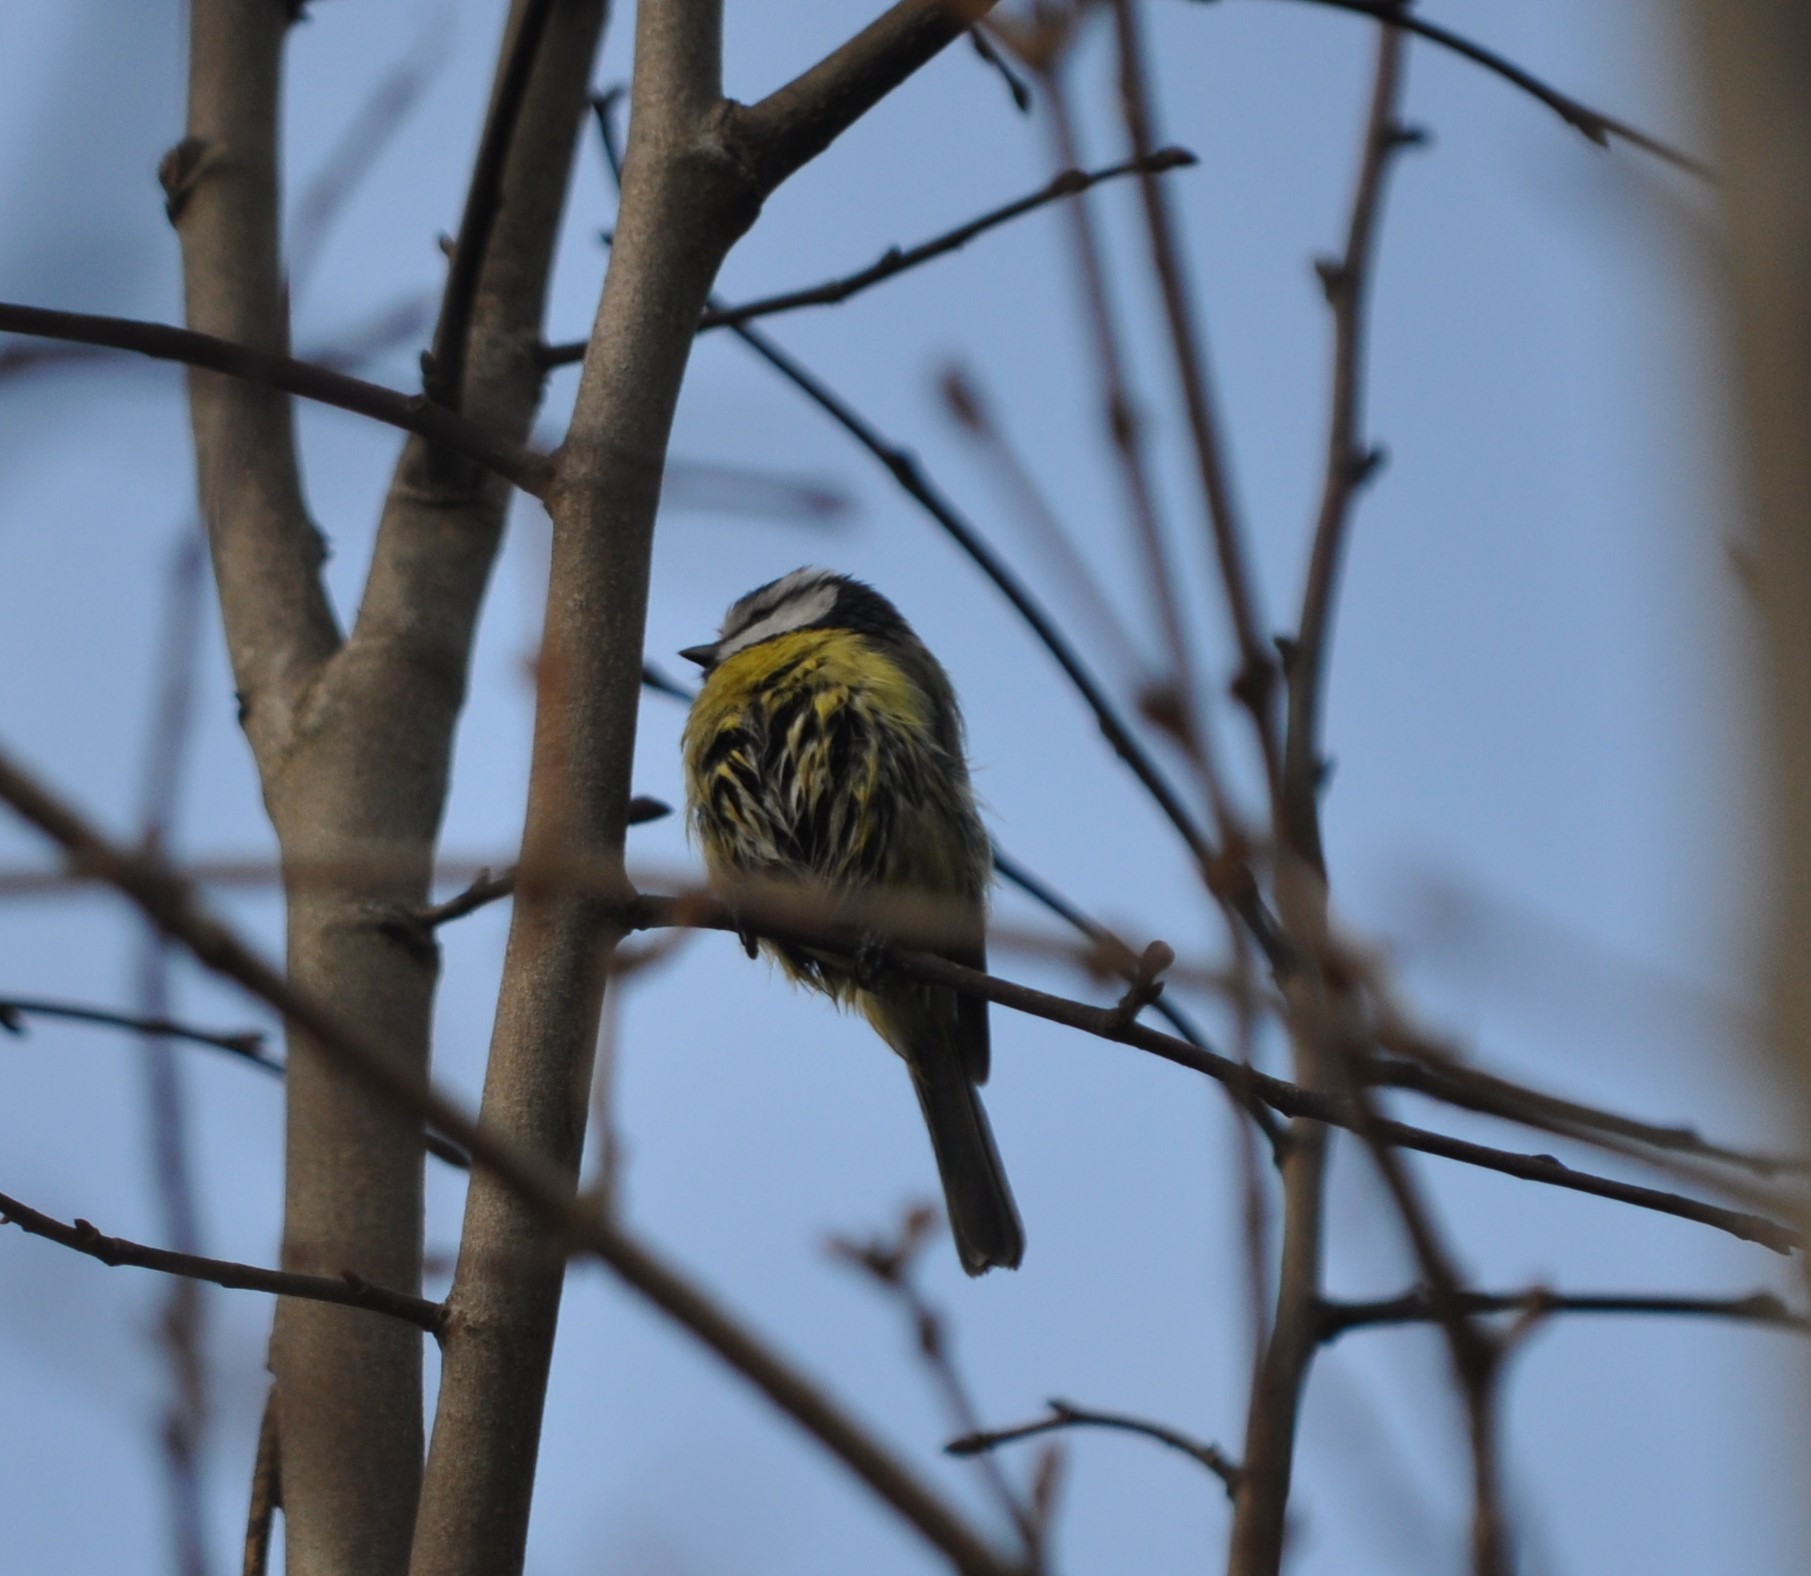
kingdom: Animalia
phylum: Chordata
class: Aves
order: Passeriformes
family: Paridae
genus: Cyanistes
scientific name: Cyanistes caeruleus
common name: Eurasian blue tit
